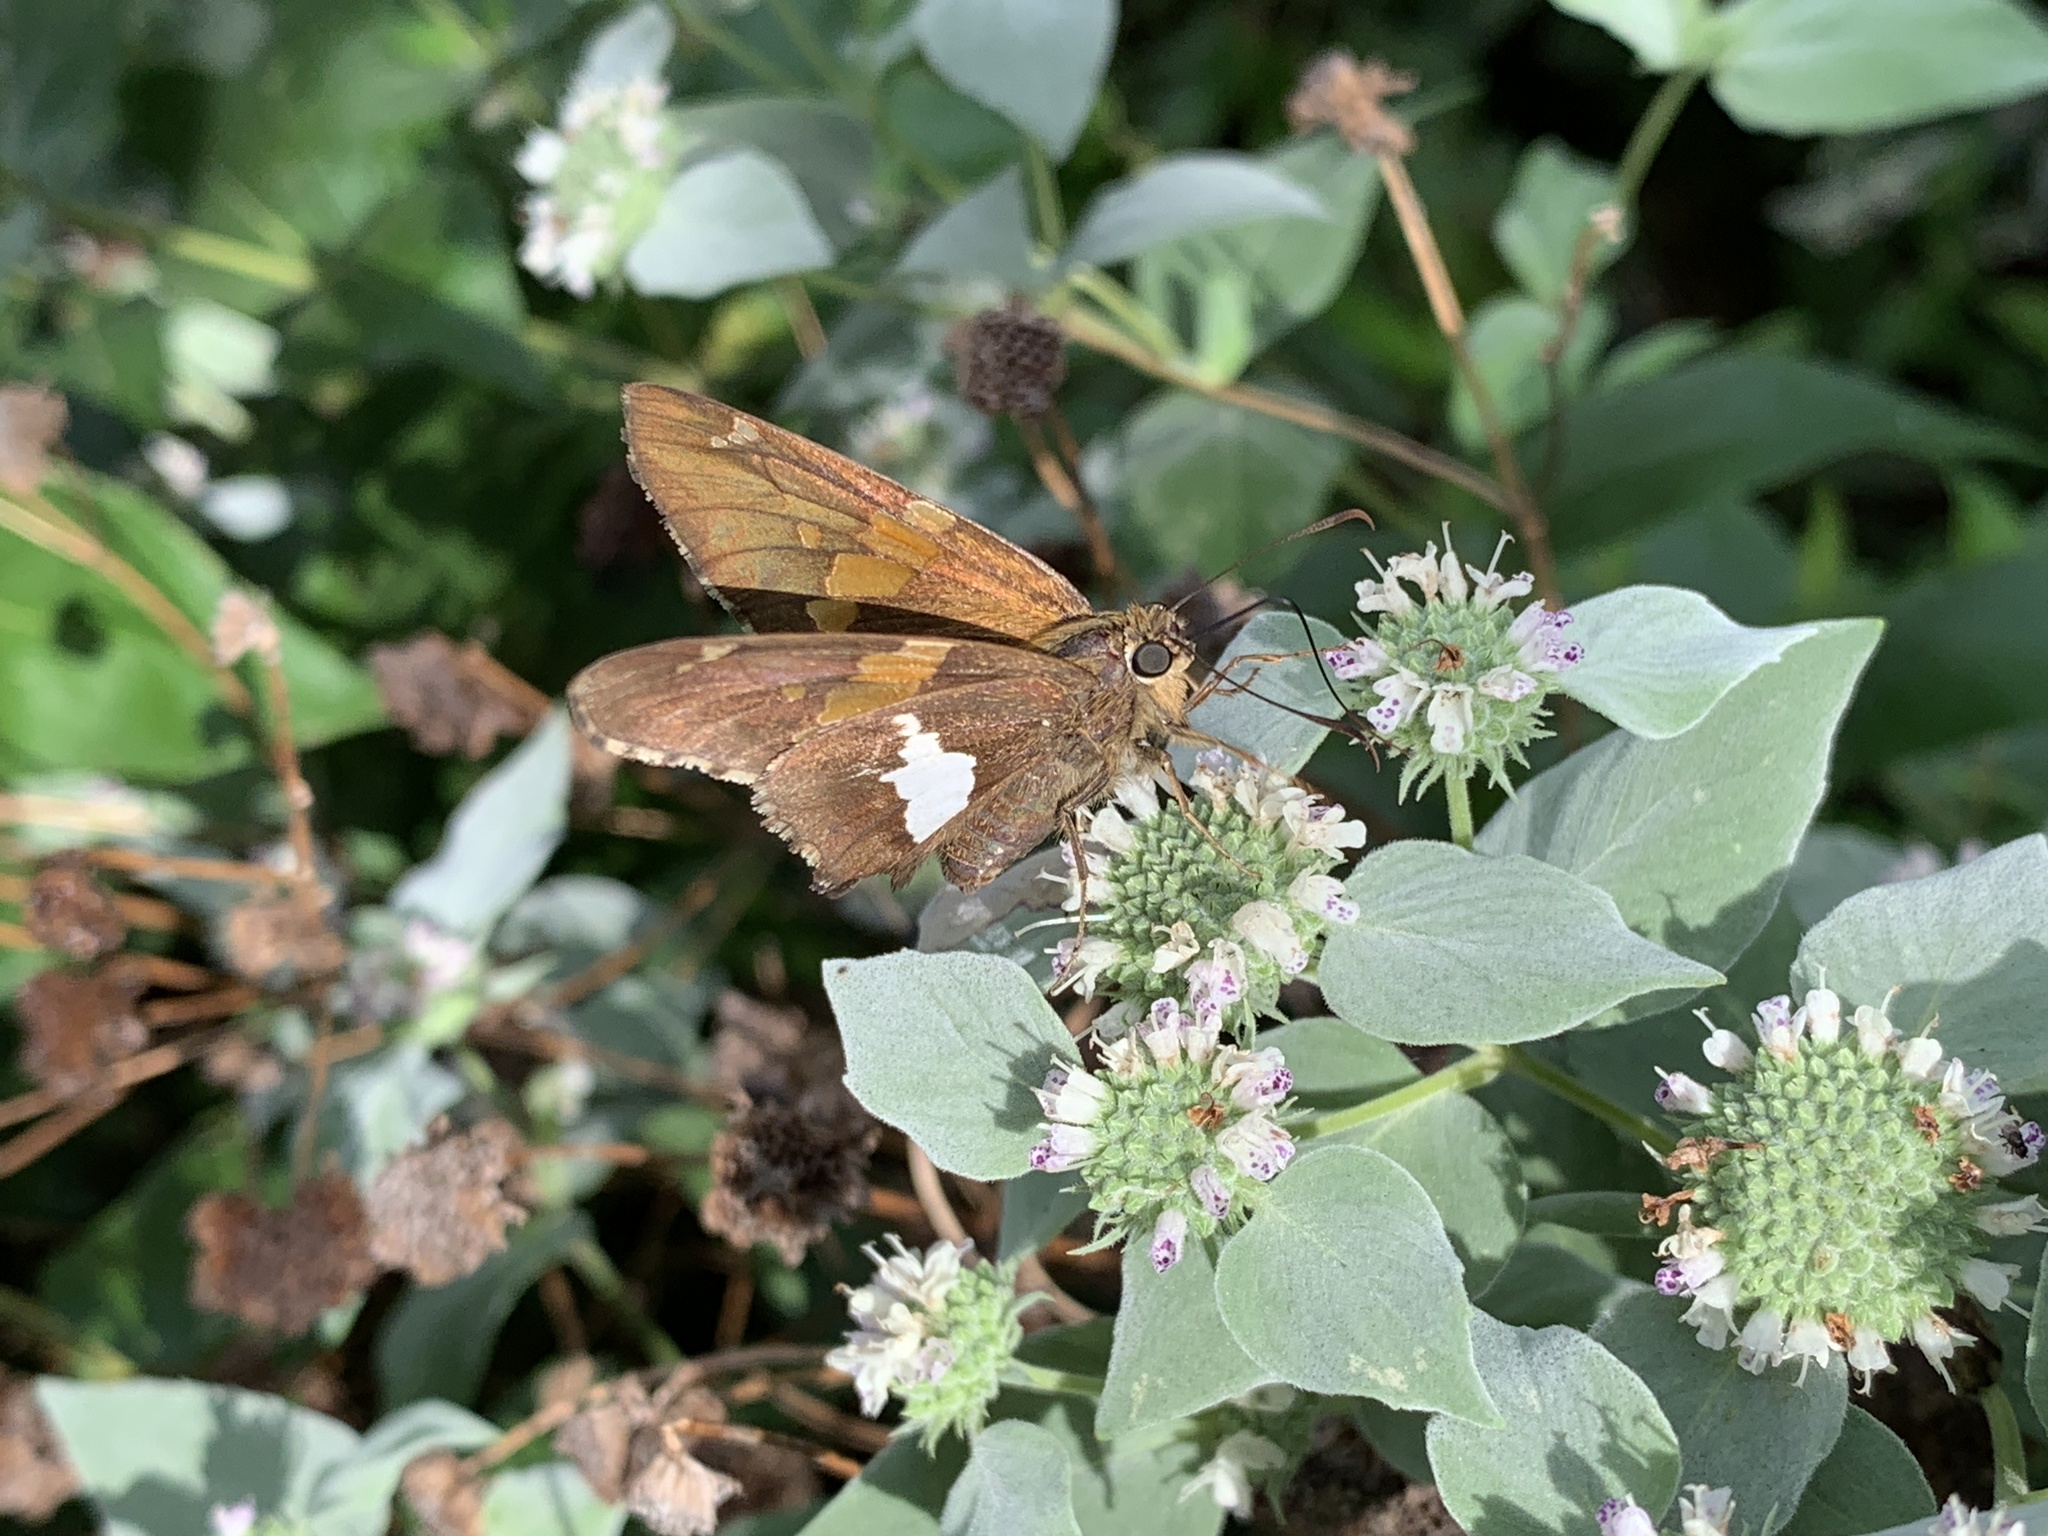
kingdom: Animalia
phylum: Arthropoda
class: Insecta
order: Lepidoptera
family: Hesperiidae
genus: Epargyreus
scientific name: Epargyreus clarus
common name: Silver-spotted skipper
